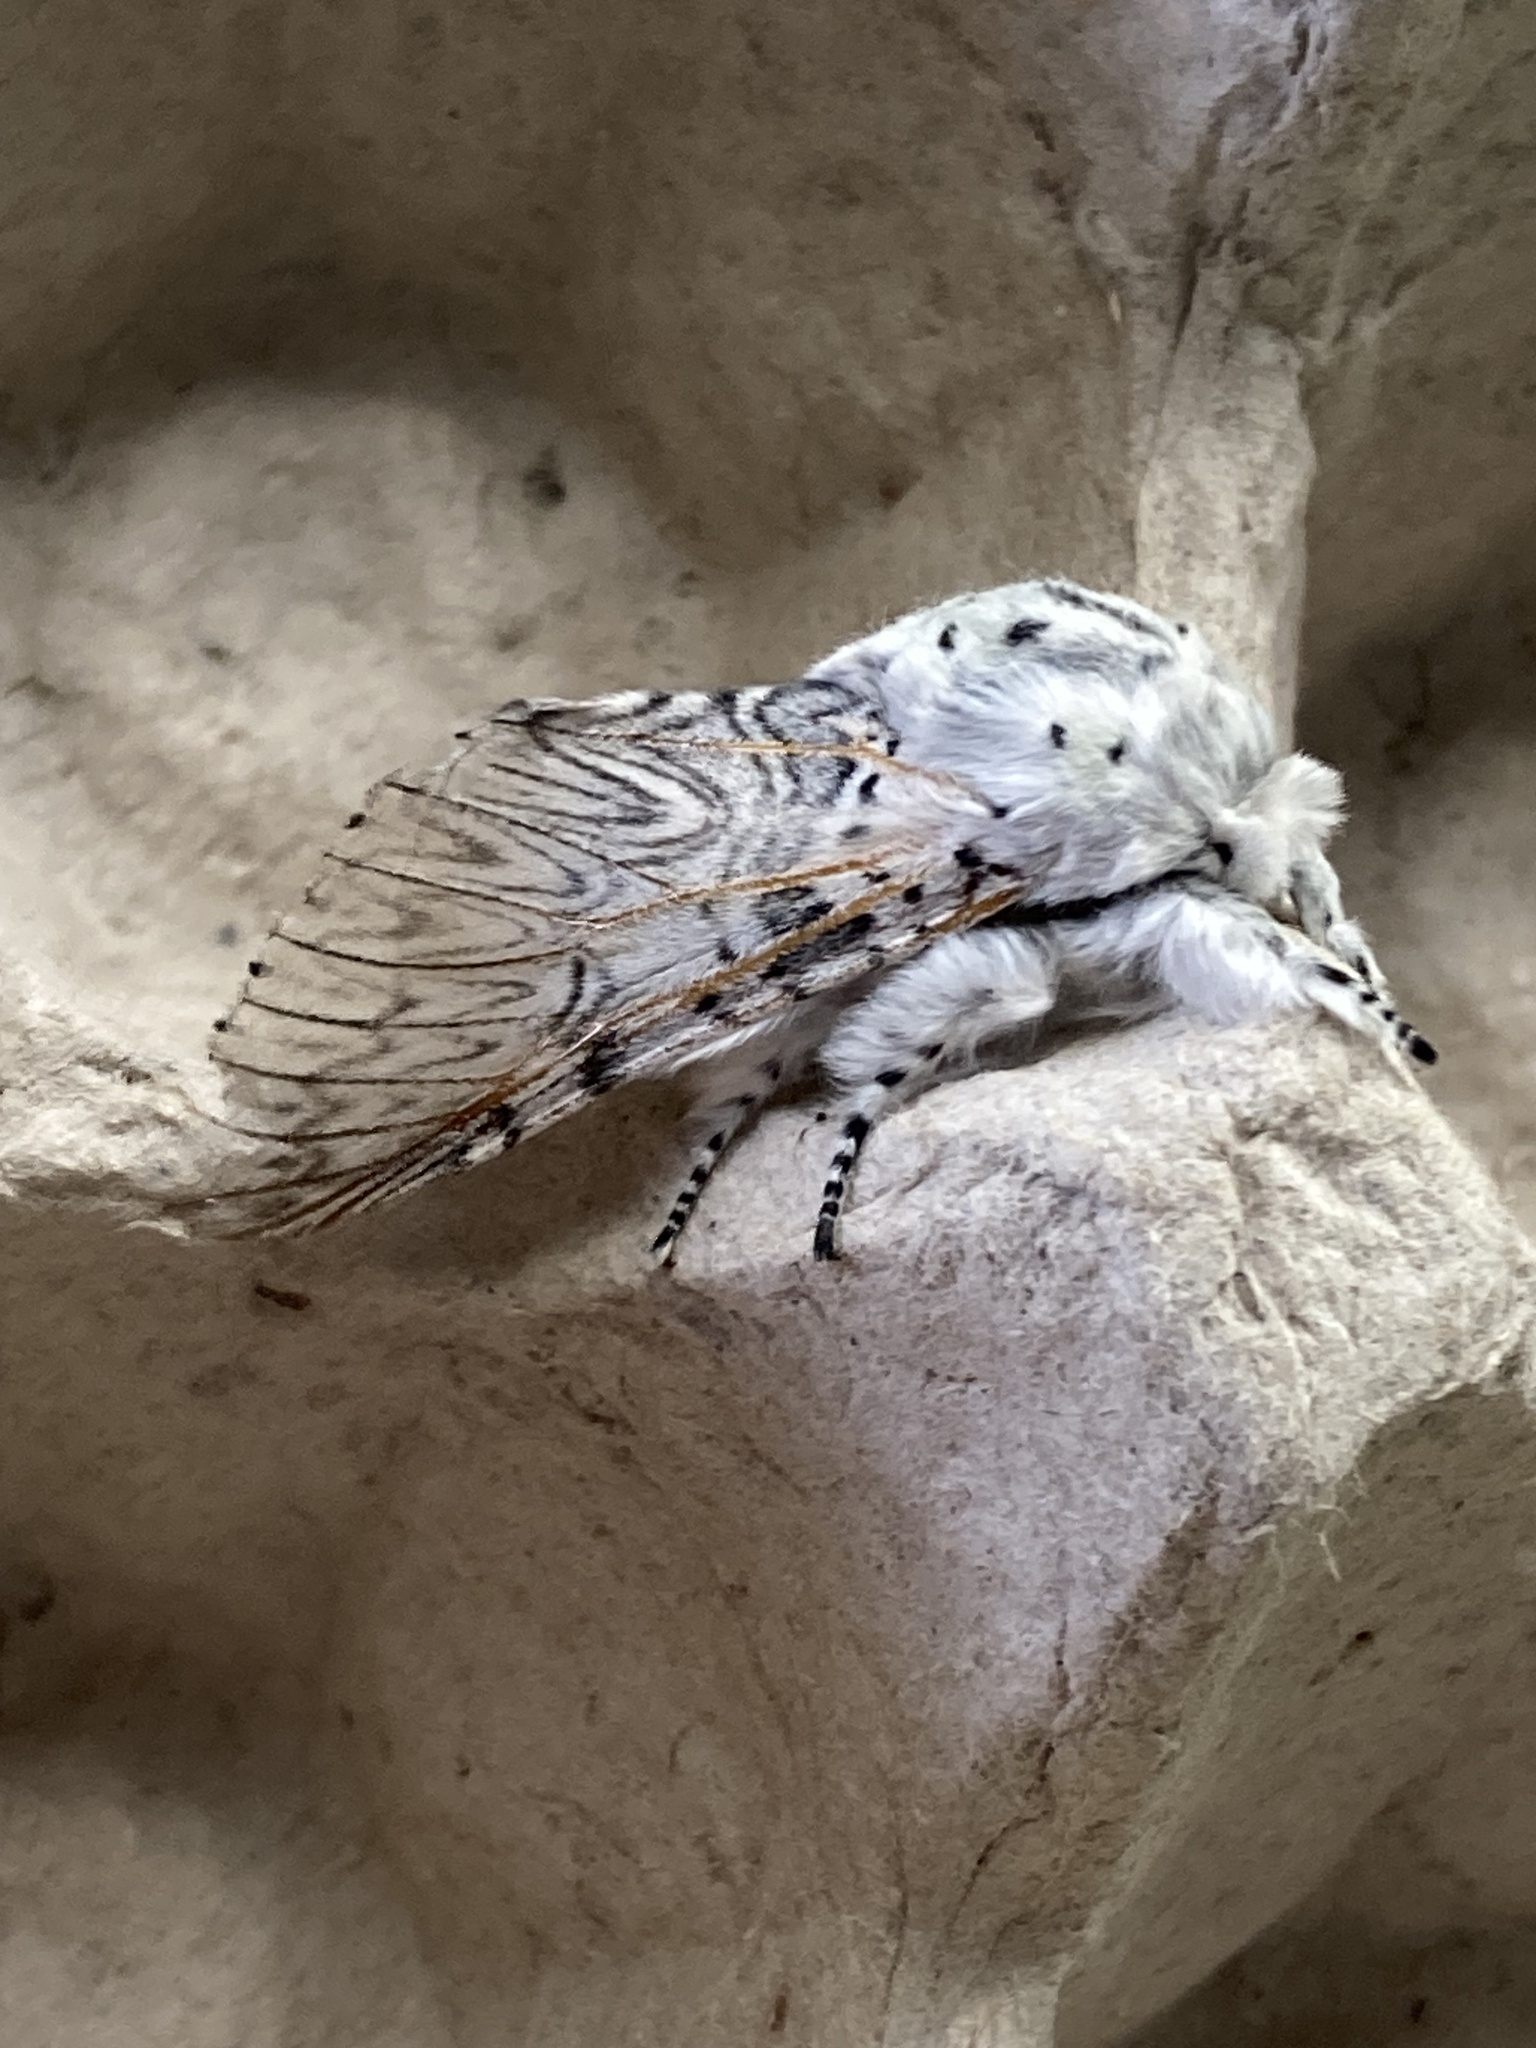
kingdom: Animalia
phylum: Arthropoda
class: Insecta
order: Lepidoptera
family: Notodontidae
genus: Cerura
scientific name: Cerura vinula
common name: Puss moth
